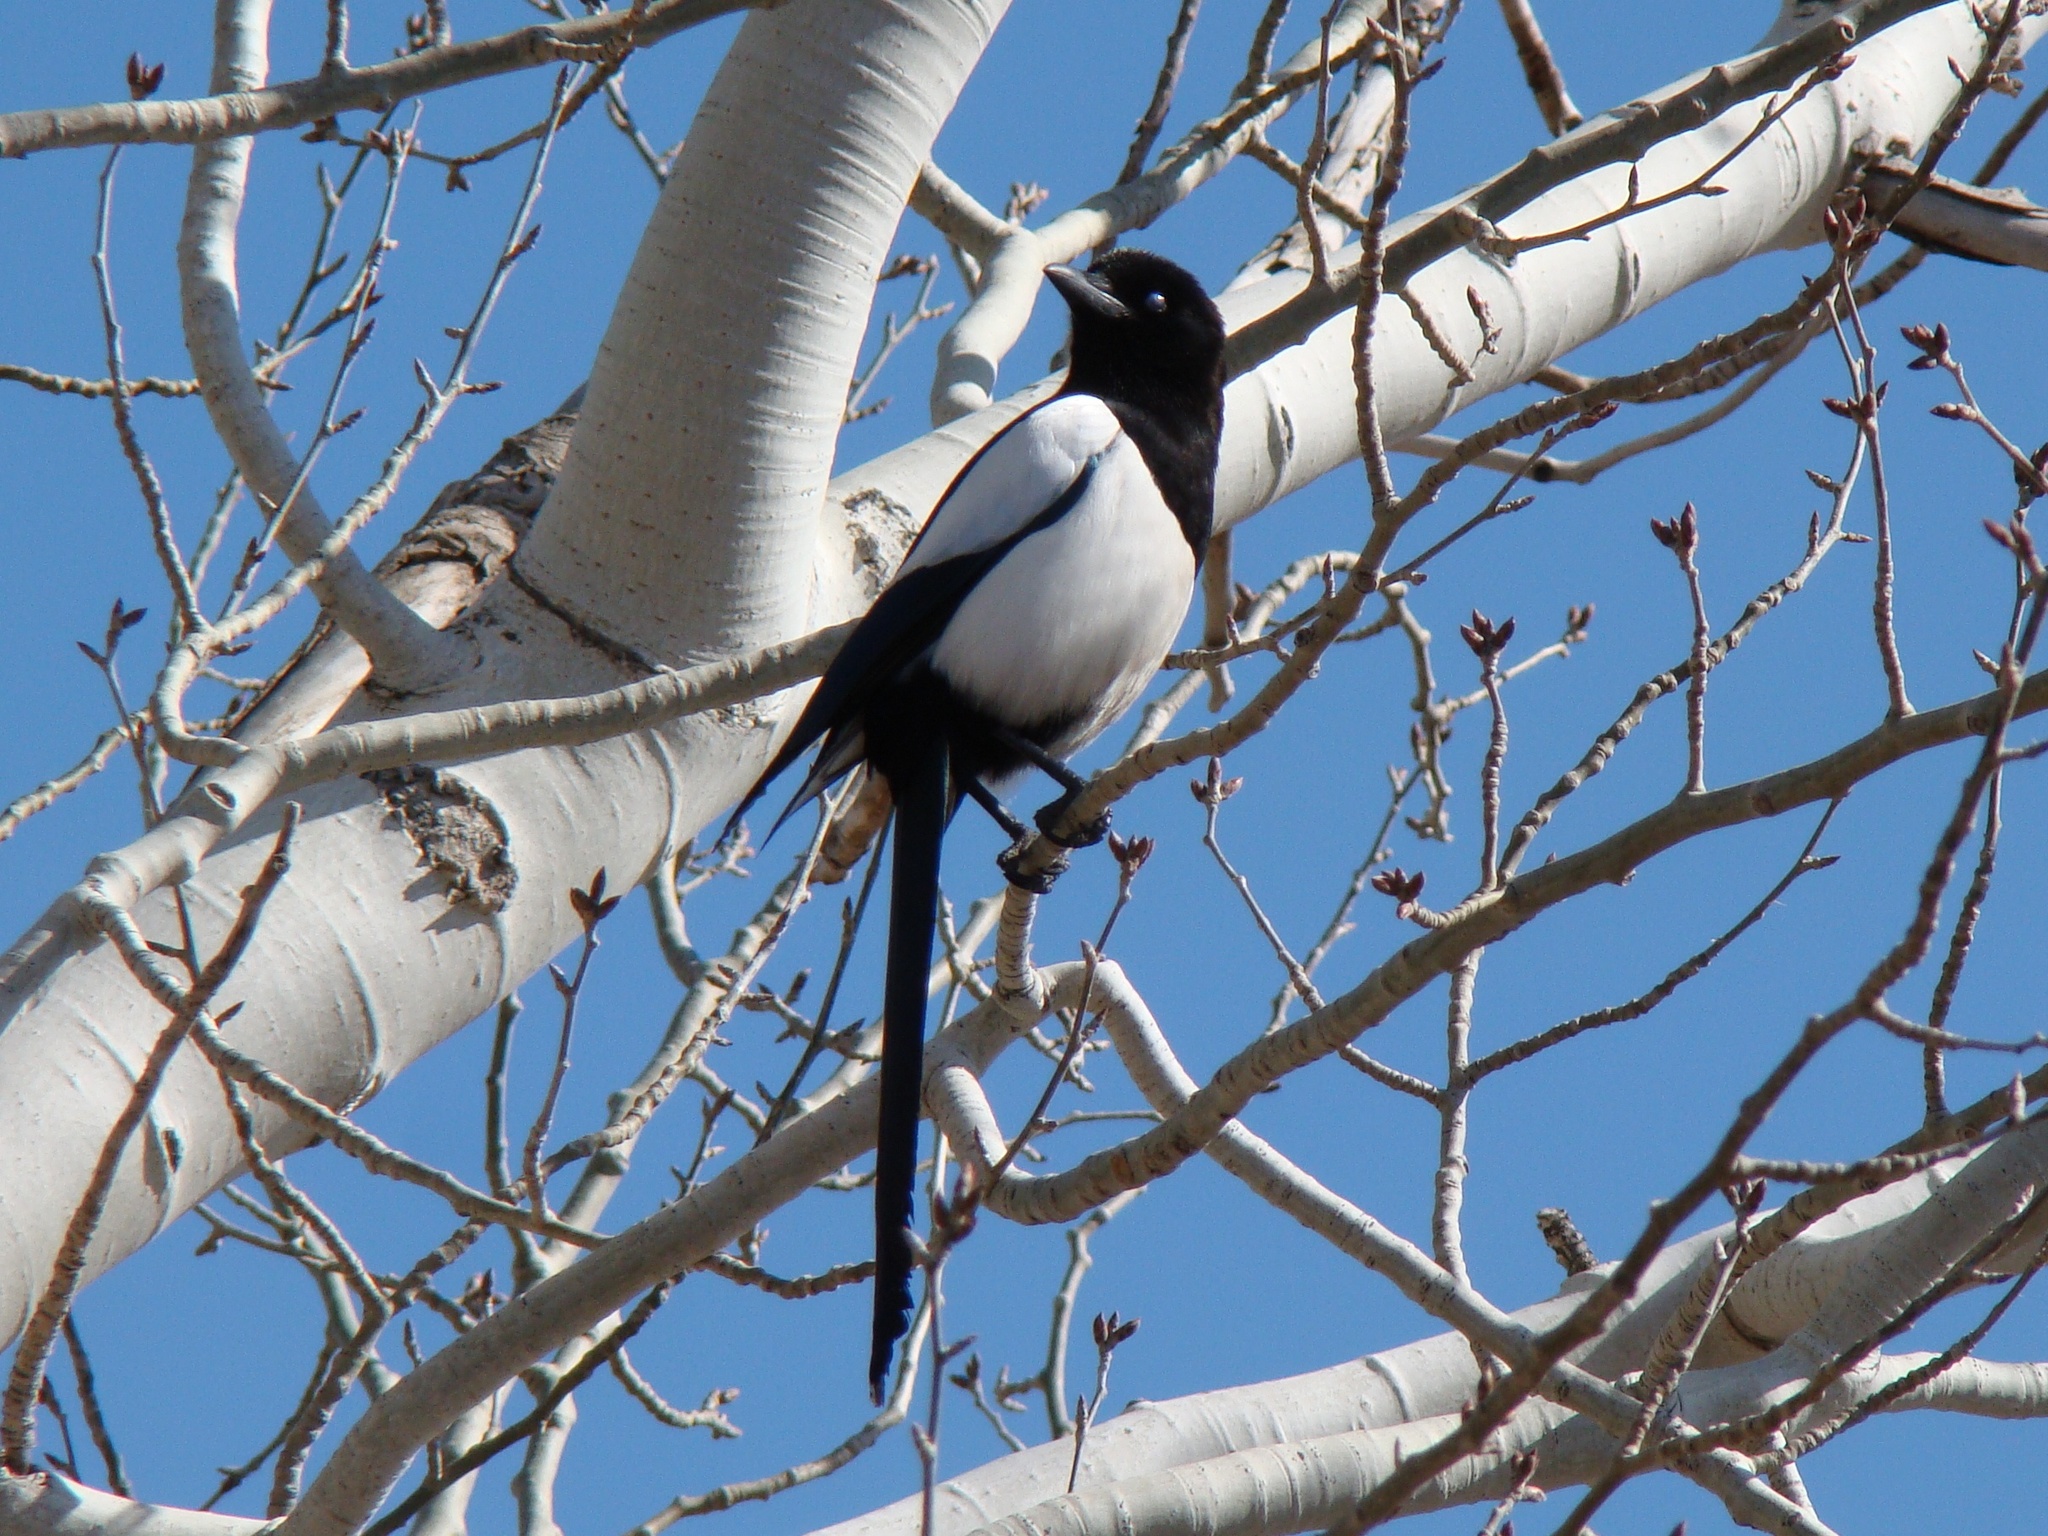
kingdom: Animalia
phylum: Chordata
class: Aves
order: Passeriformes
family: Corvidae
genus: Pica
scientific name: Pica pica
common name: Eurasian magpie
